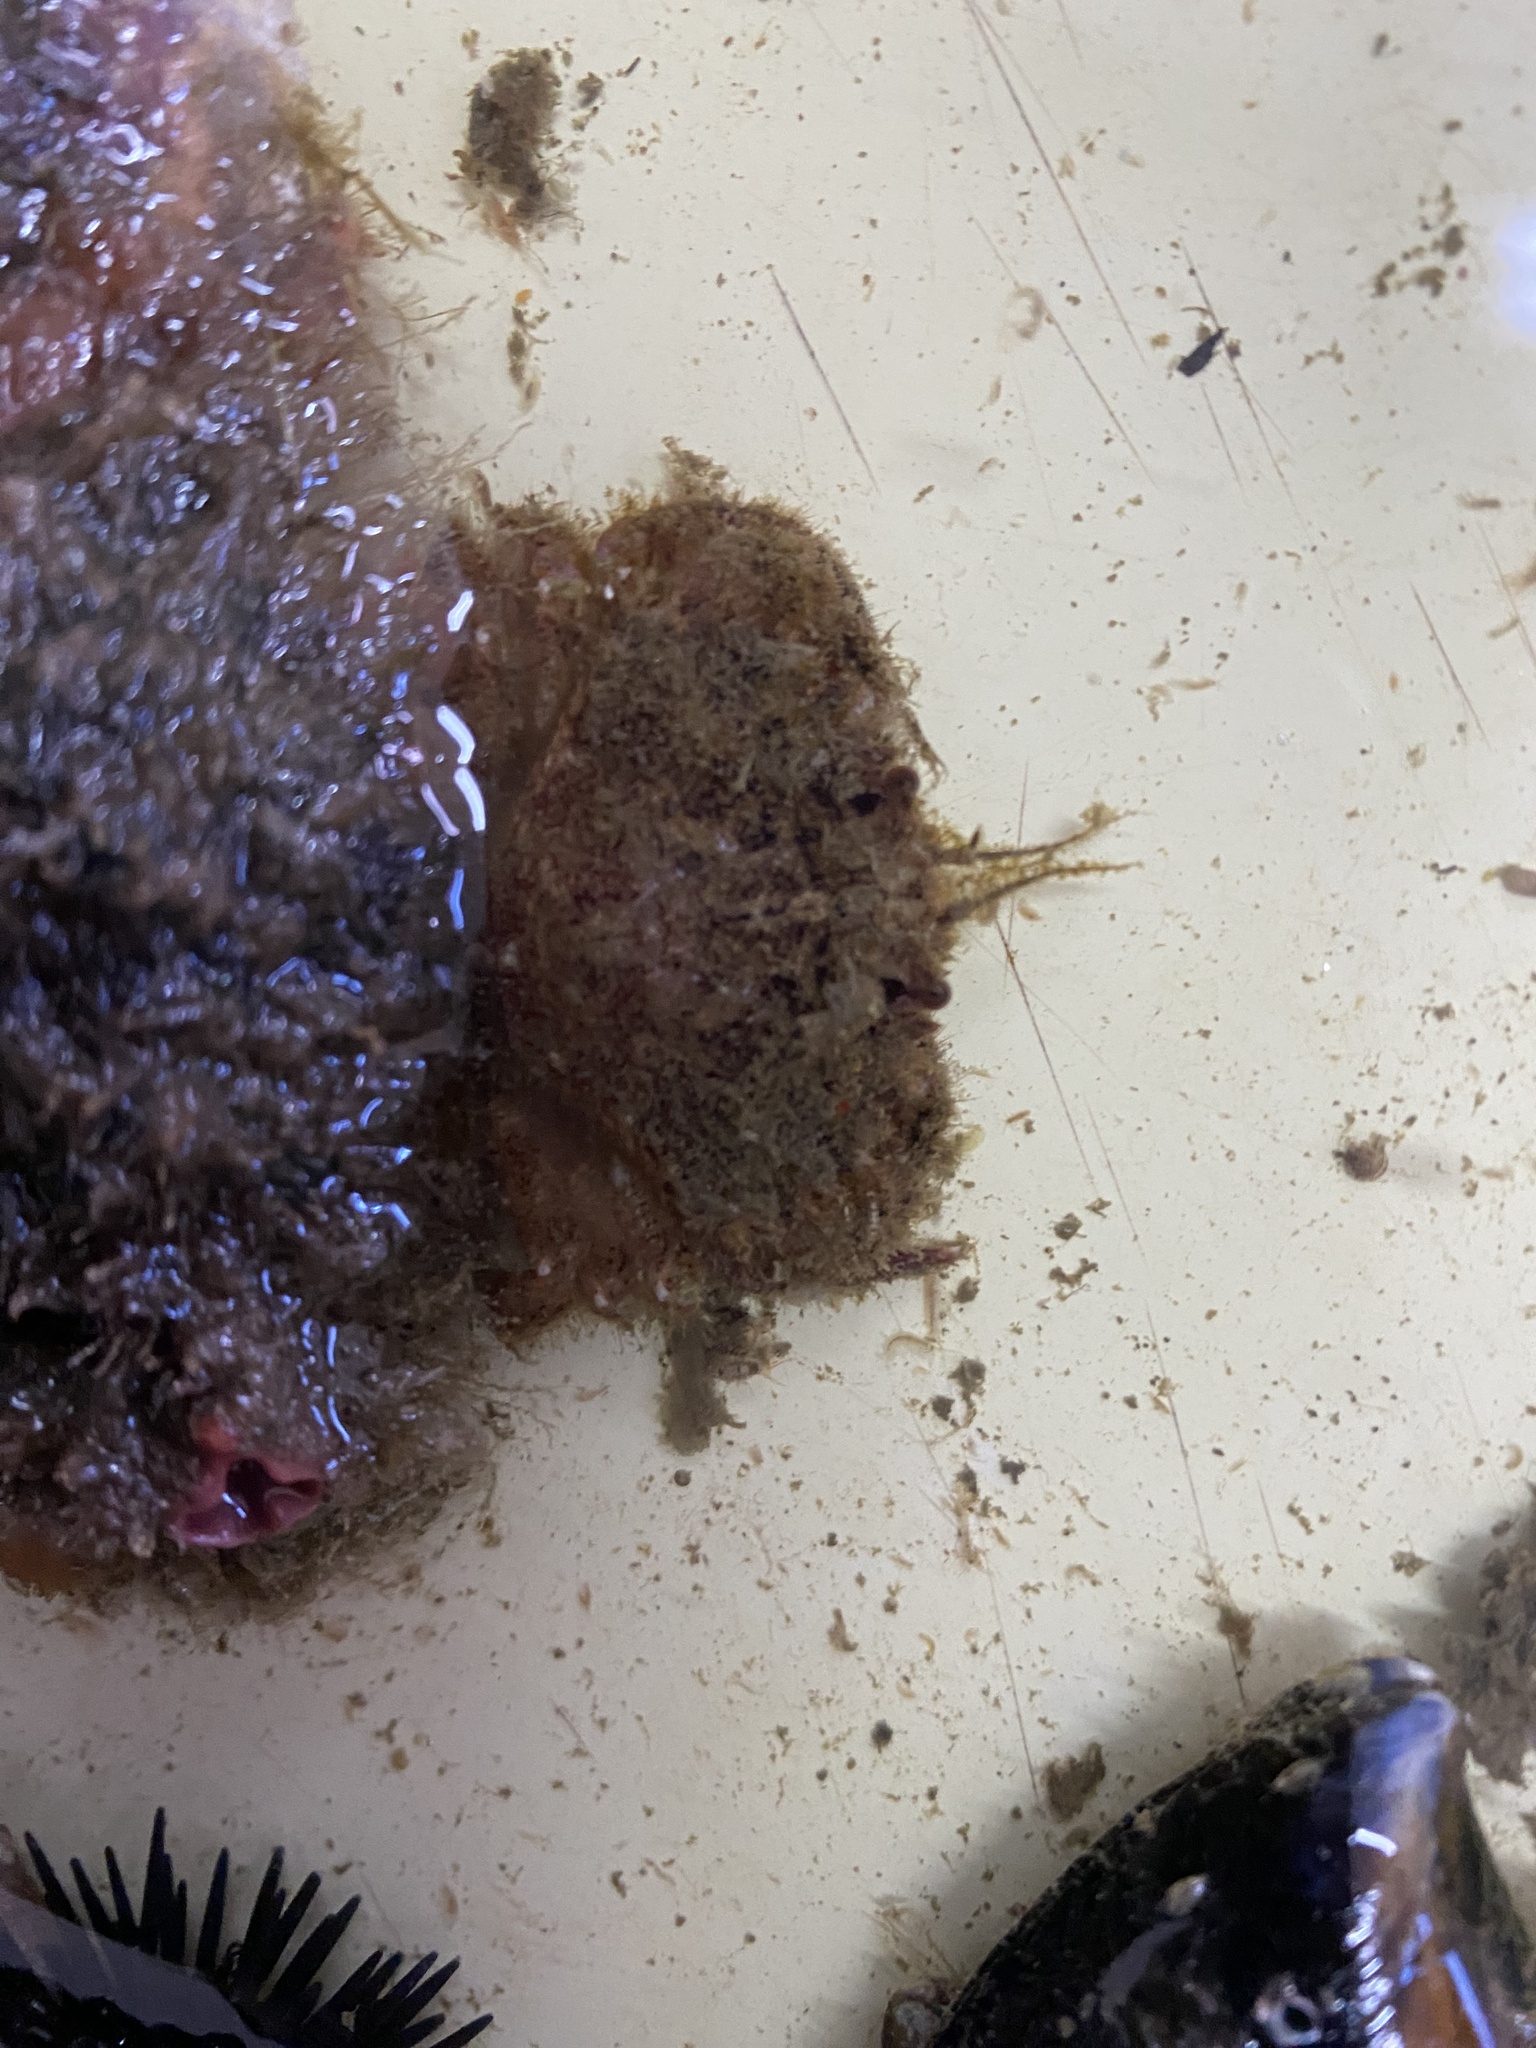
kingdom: Animalia
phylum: Arthropoda
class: Malacostraca
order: Decapoda
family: Cancridae
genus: Romaleon
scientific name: Romaleon setosum
